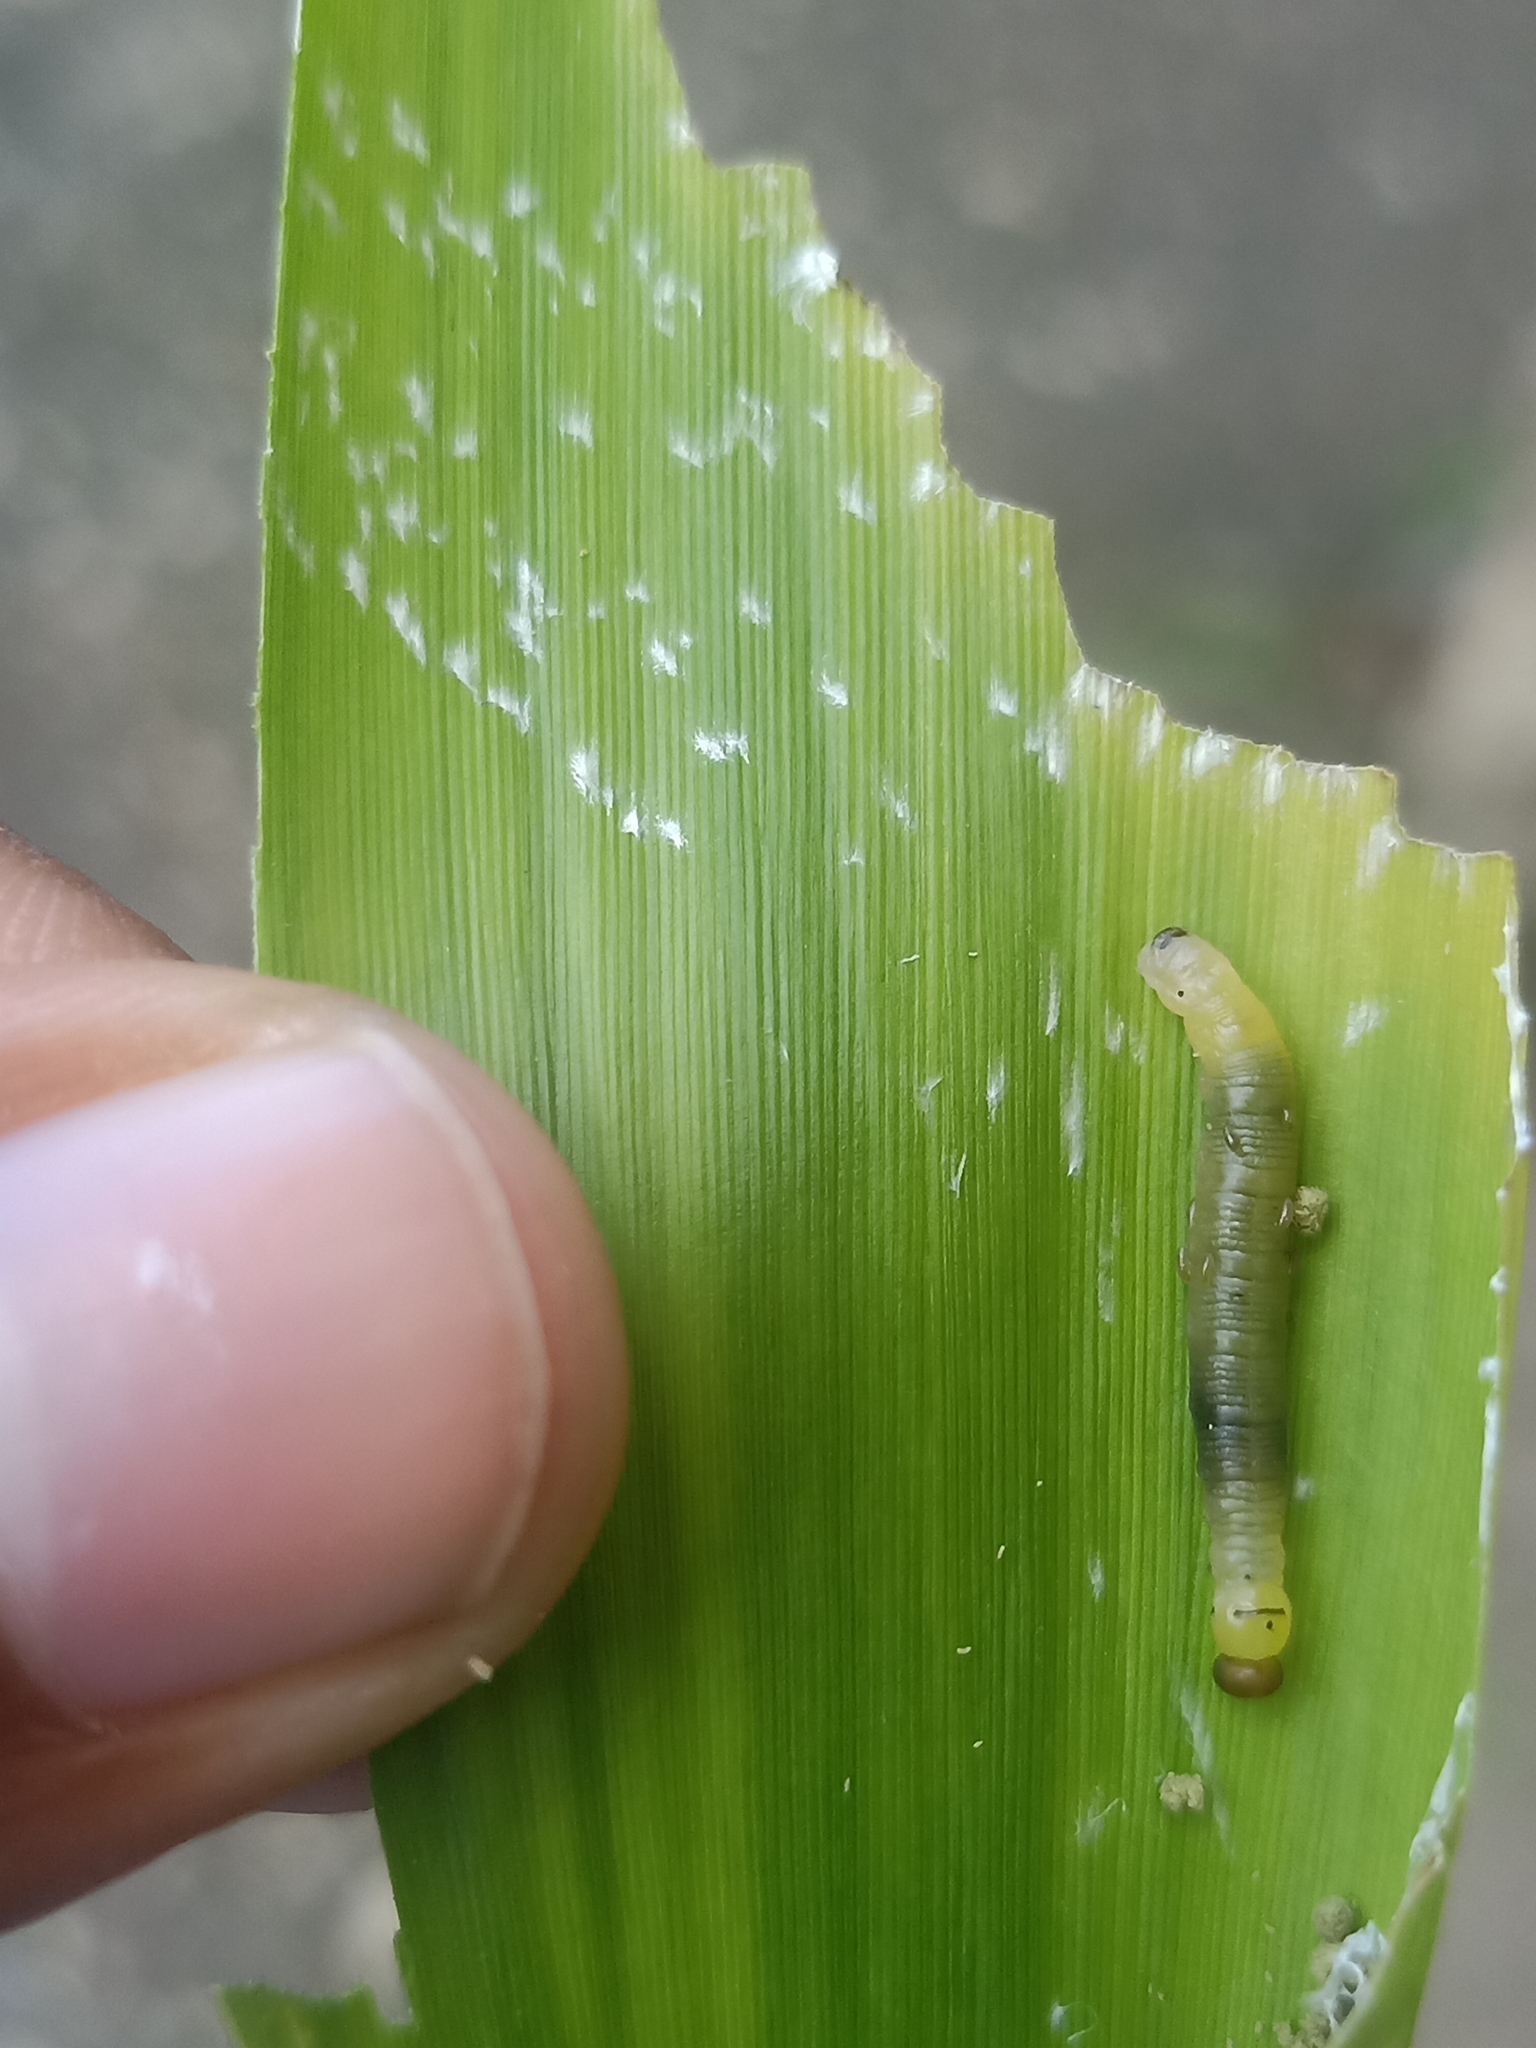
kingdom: Animalia
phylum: Arthropoda
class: Insecta
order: Lepidoptera
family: Hesperiidae
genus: Matapa
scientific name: Matapa aria
